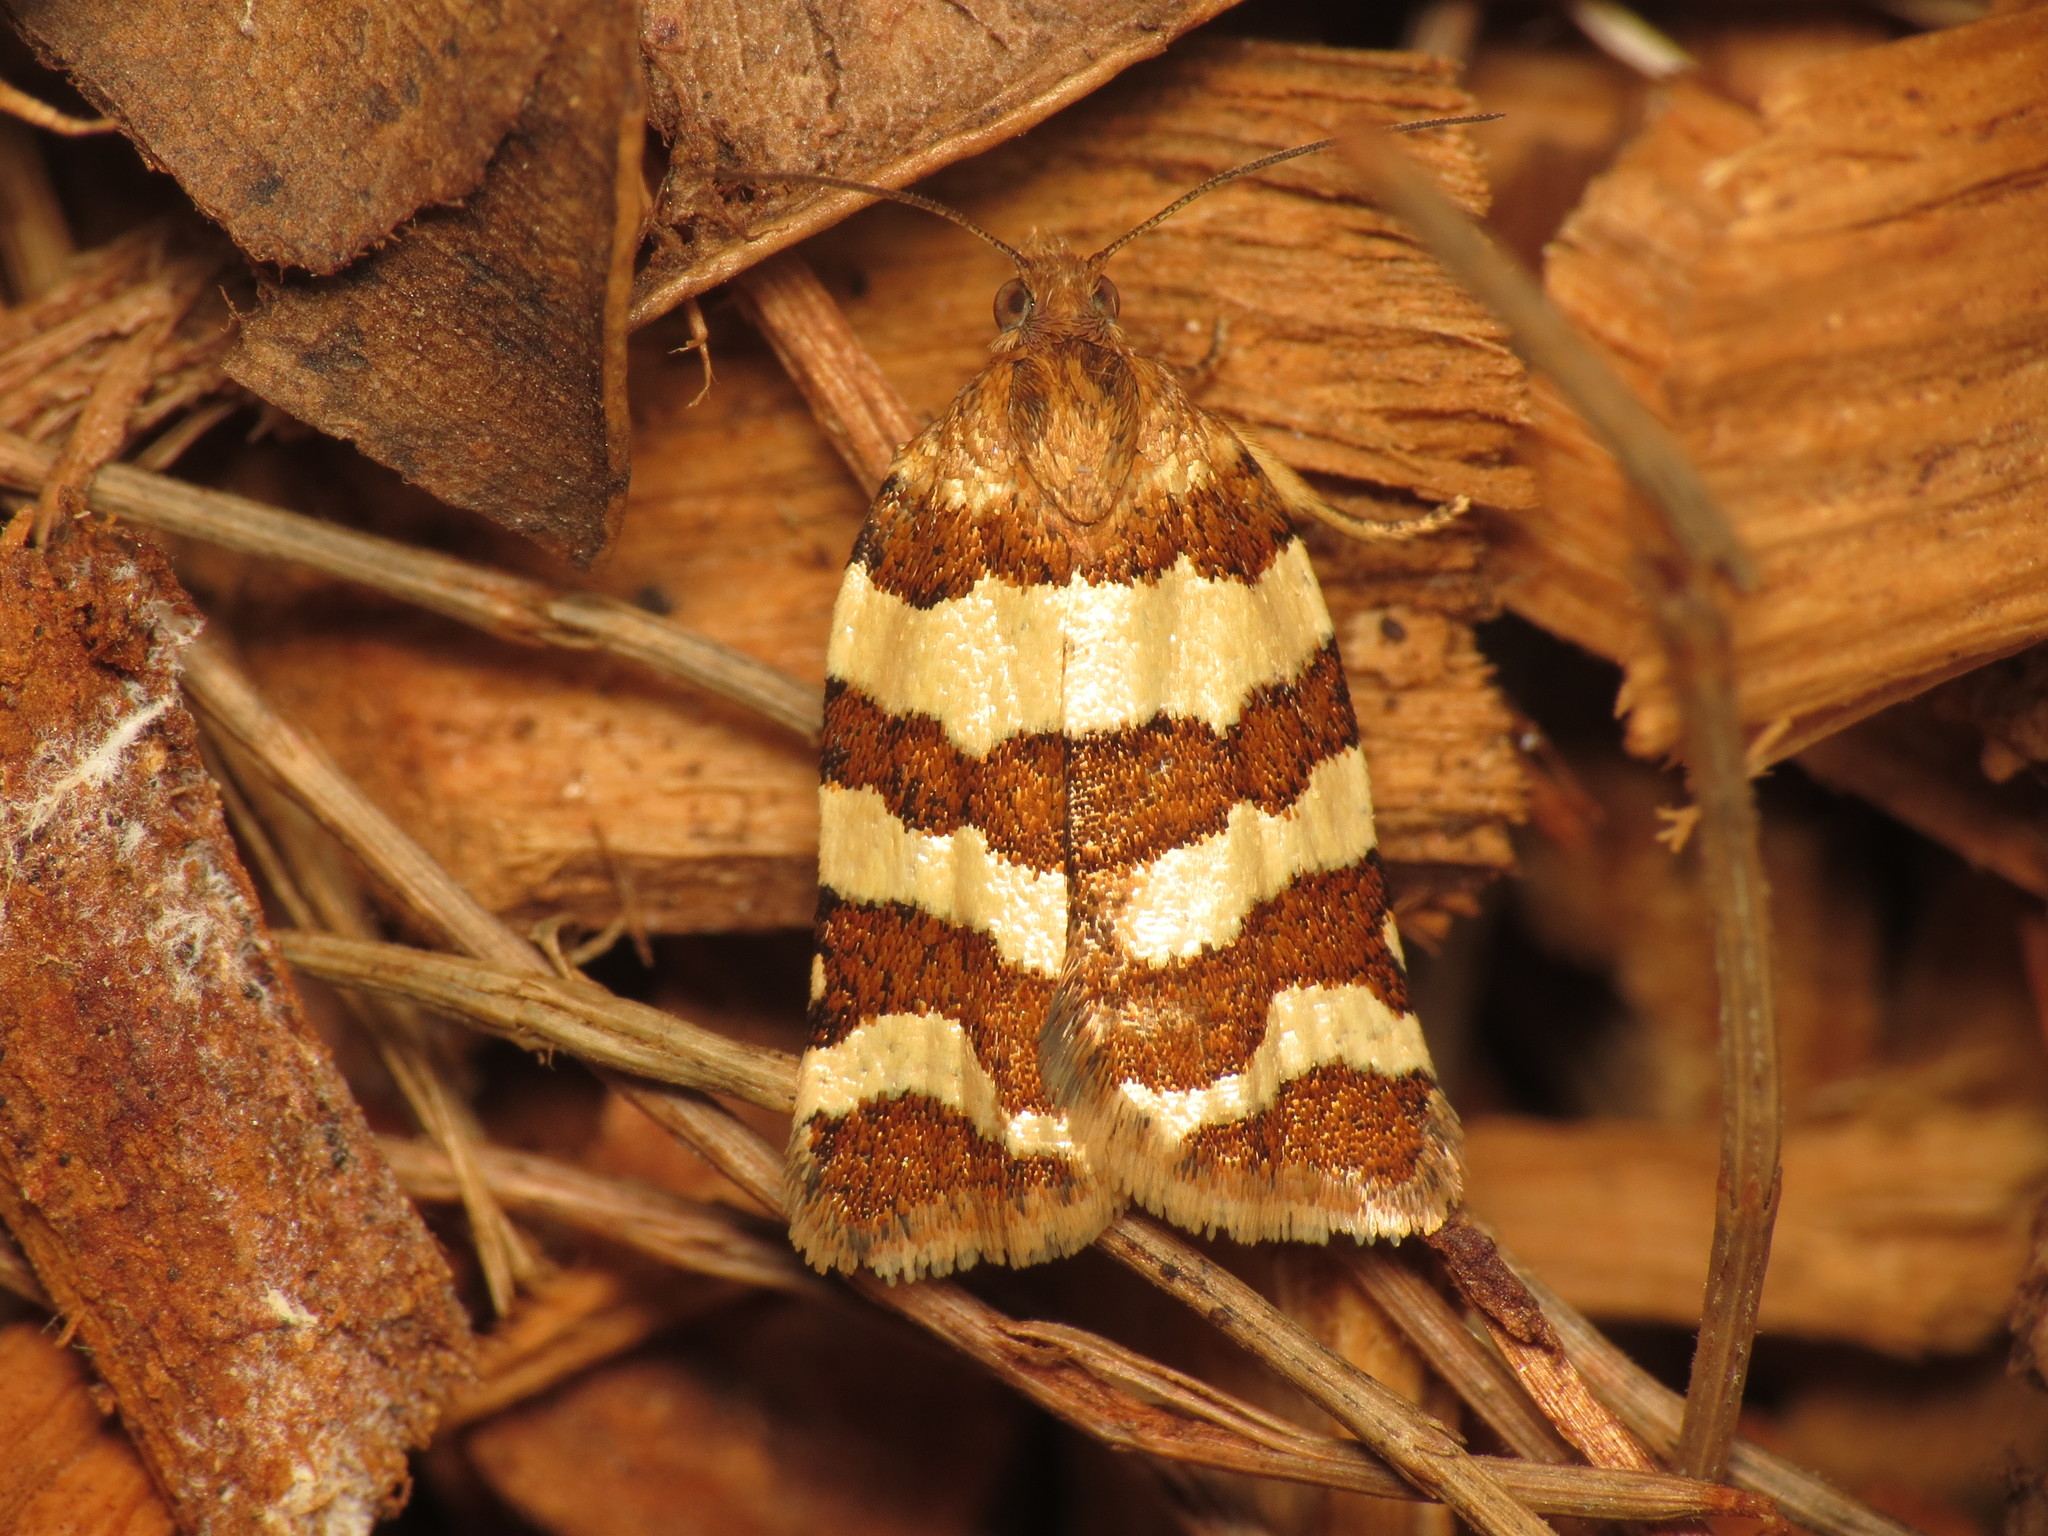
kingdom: Animalia
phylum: Arthropoda
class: Insecta
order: Lepidoptera
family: Tortricidae
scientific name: Tortricidae
